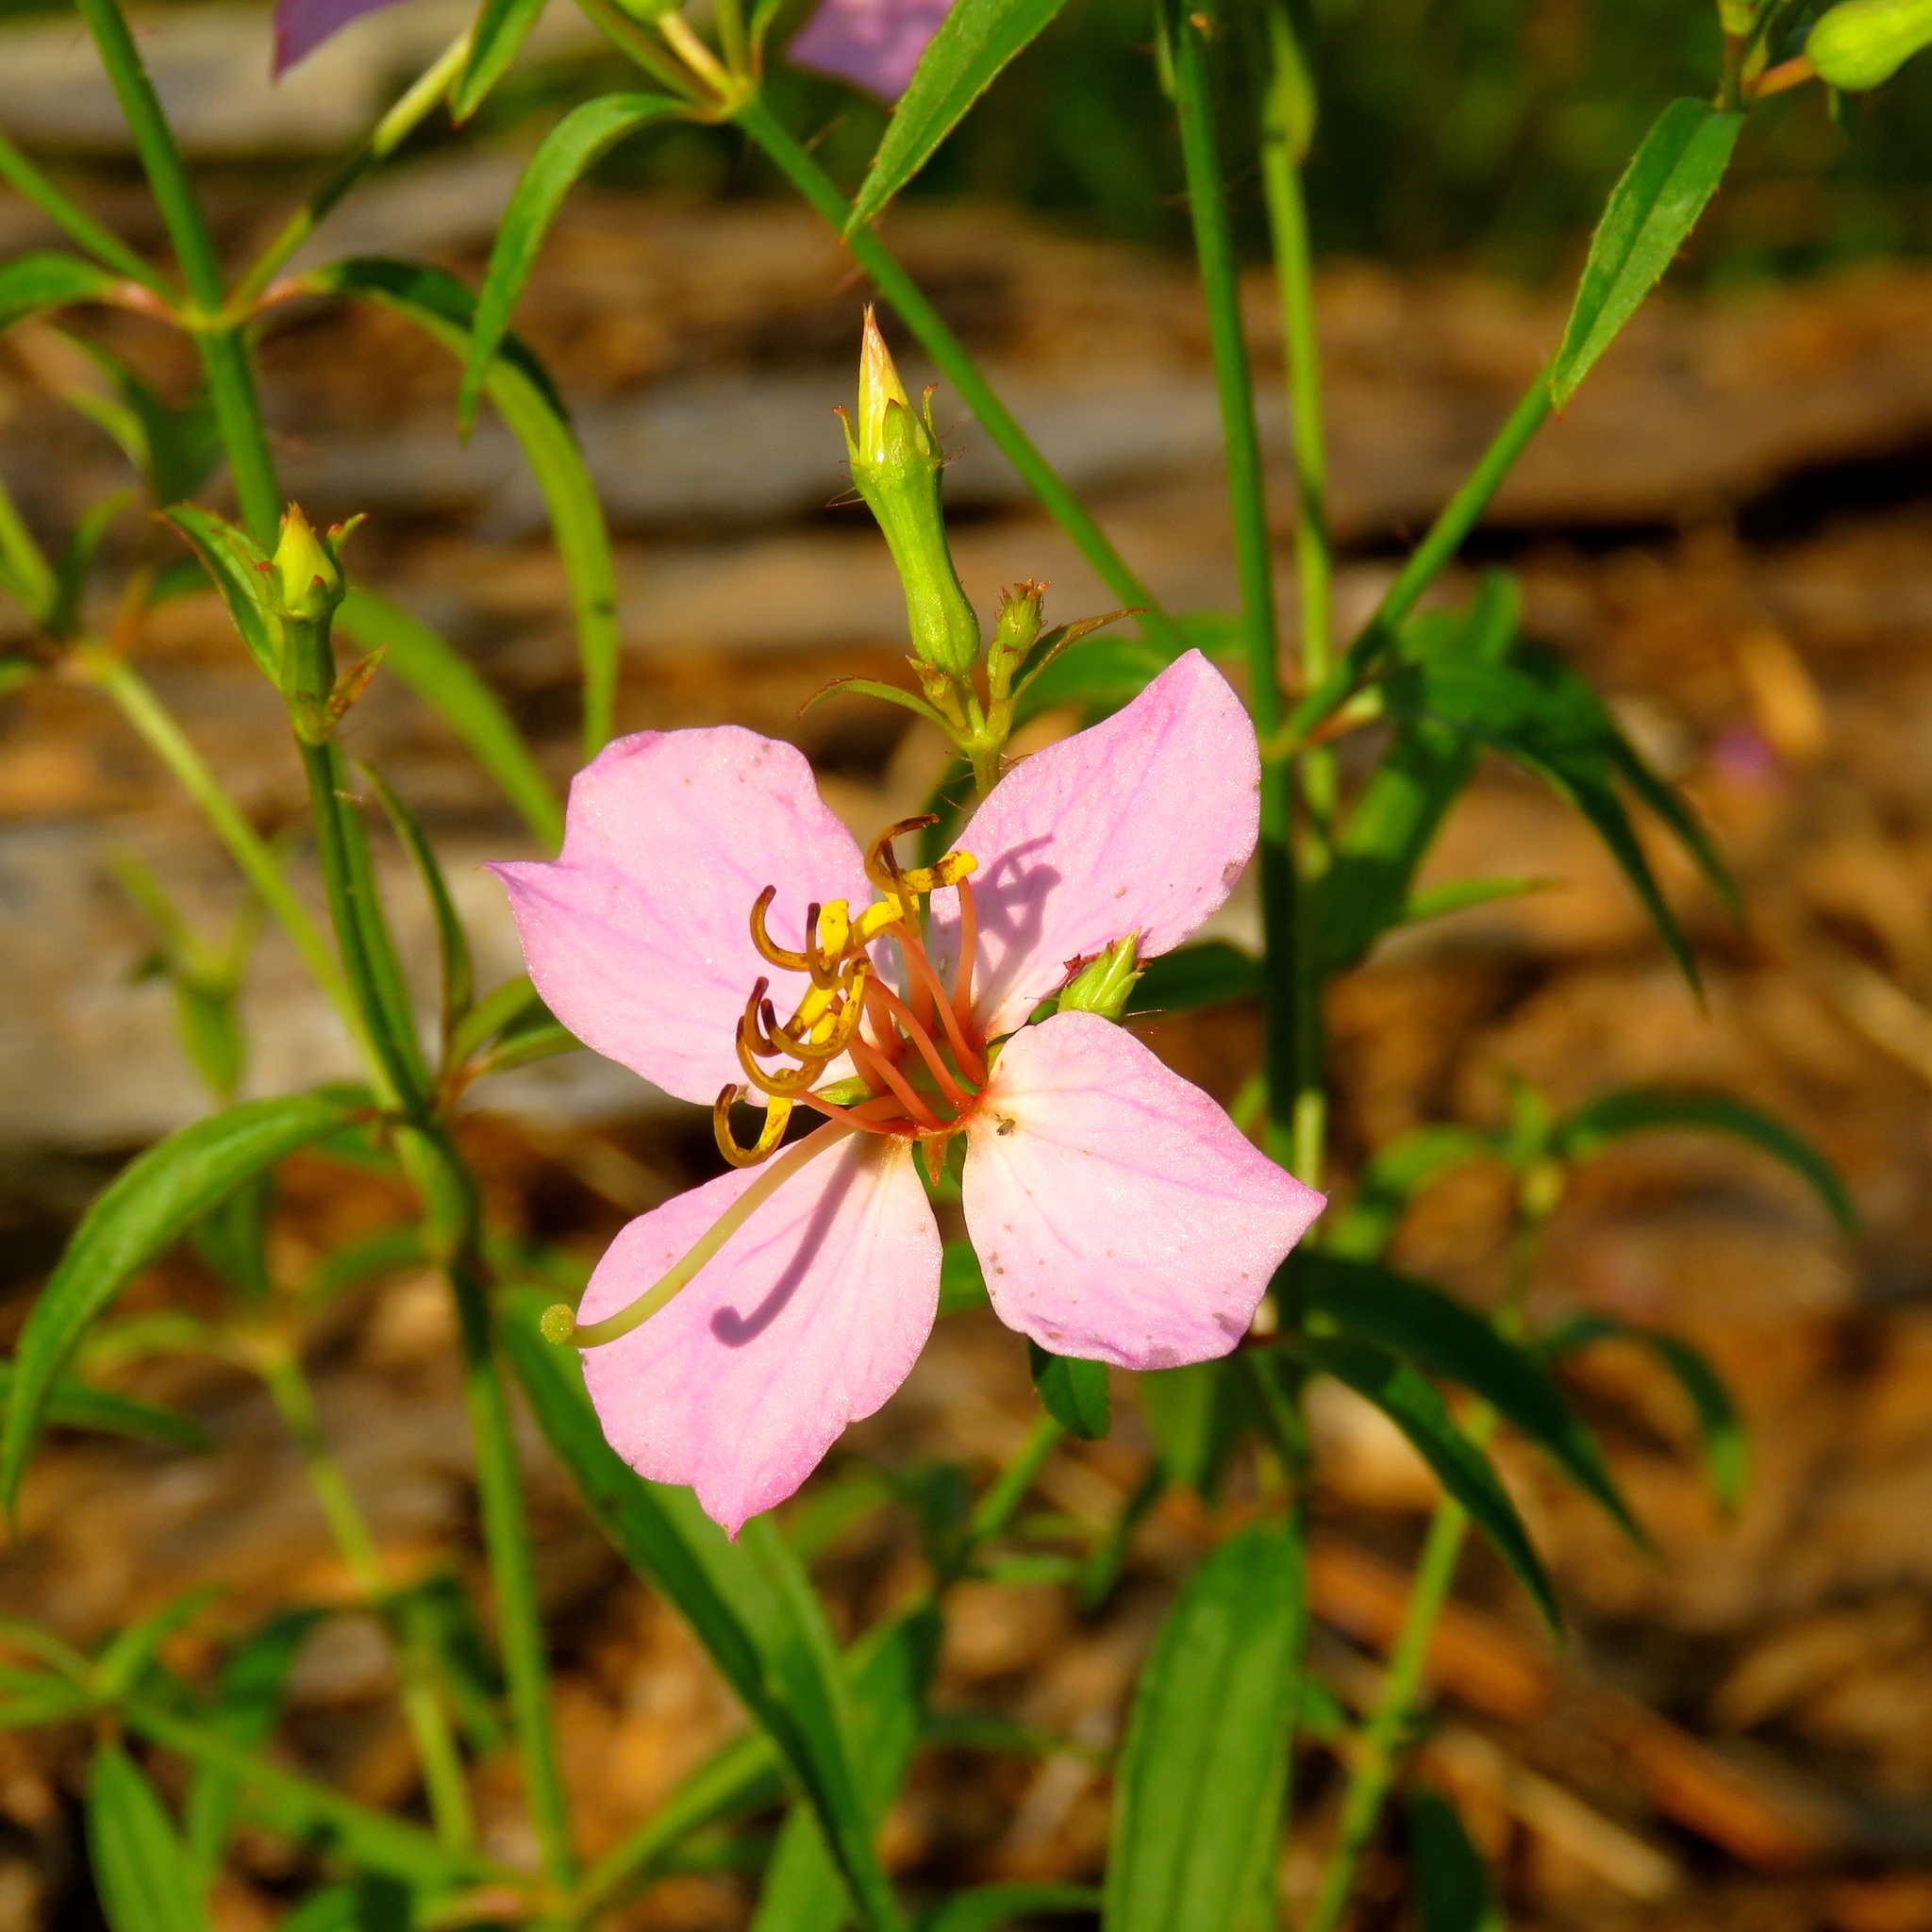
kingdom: Plantae
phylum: Tracheophyta
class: Magnoliopsida
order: Myrtales
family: Melastomataceae
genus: Rhexia
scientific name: Rhexia mariana
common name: Dull meadow-pitcher
